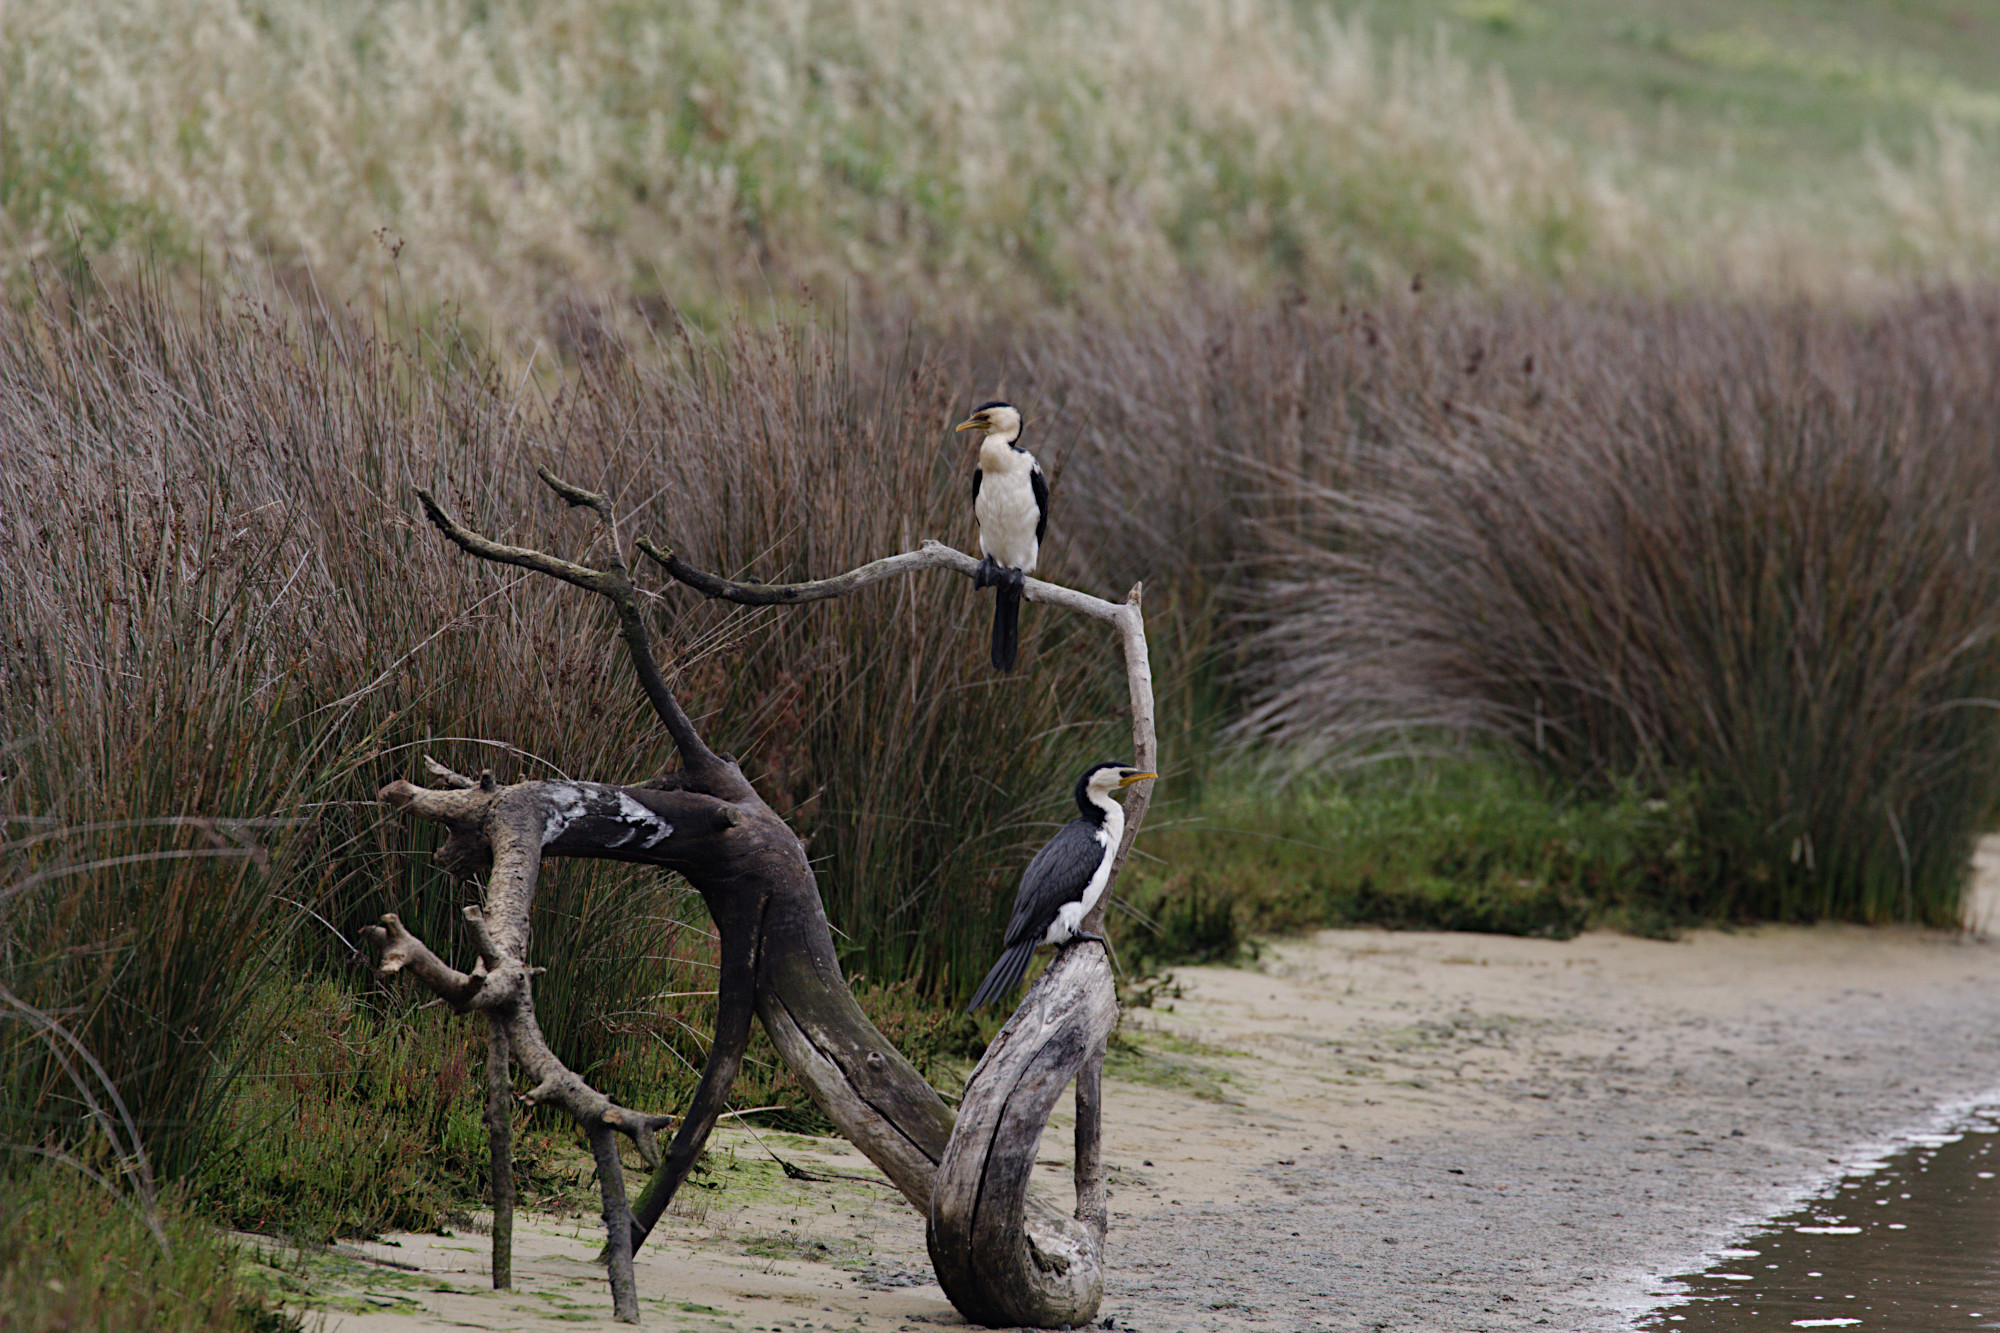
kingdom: Animalia
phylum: Chordata
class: Aves
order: Suliformes
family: Phalacrocoracidae
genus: Microcarbo
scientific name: Microcarbo melanoleucos
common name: Little pied cormorant
